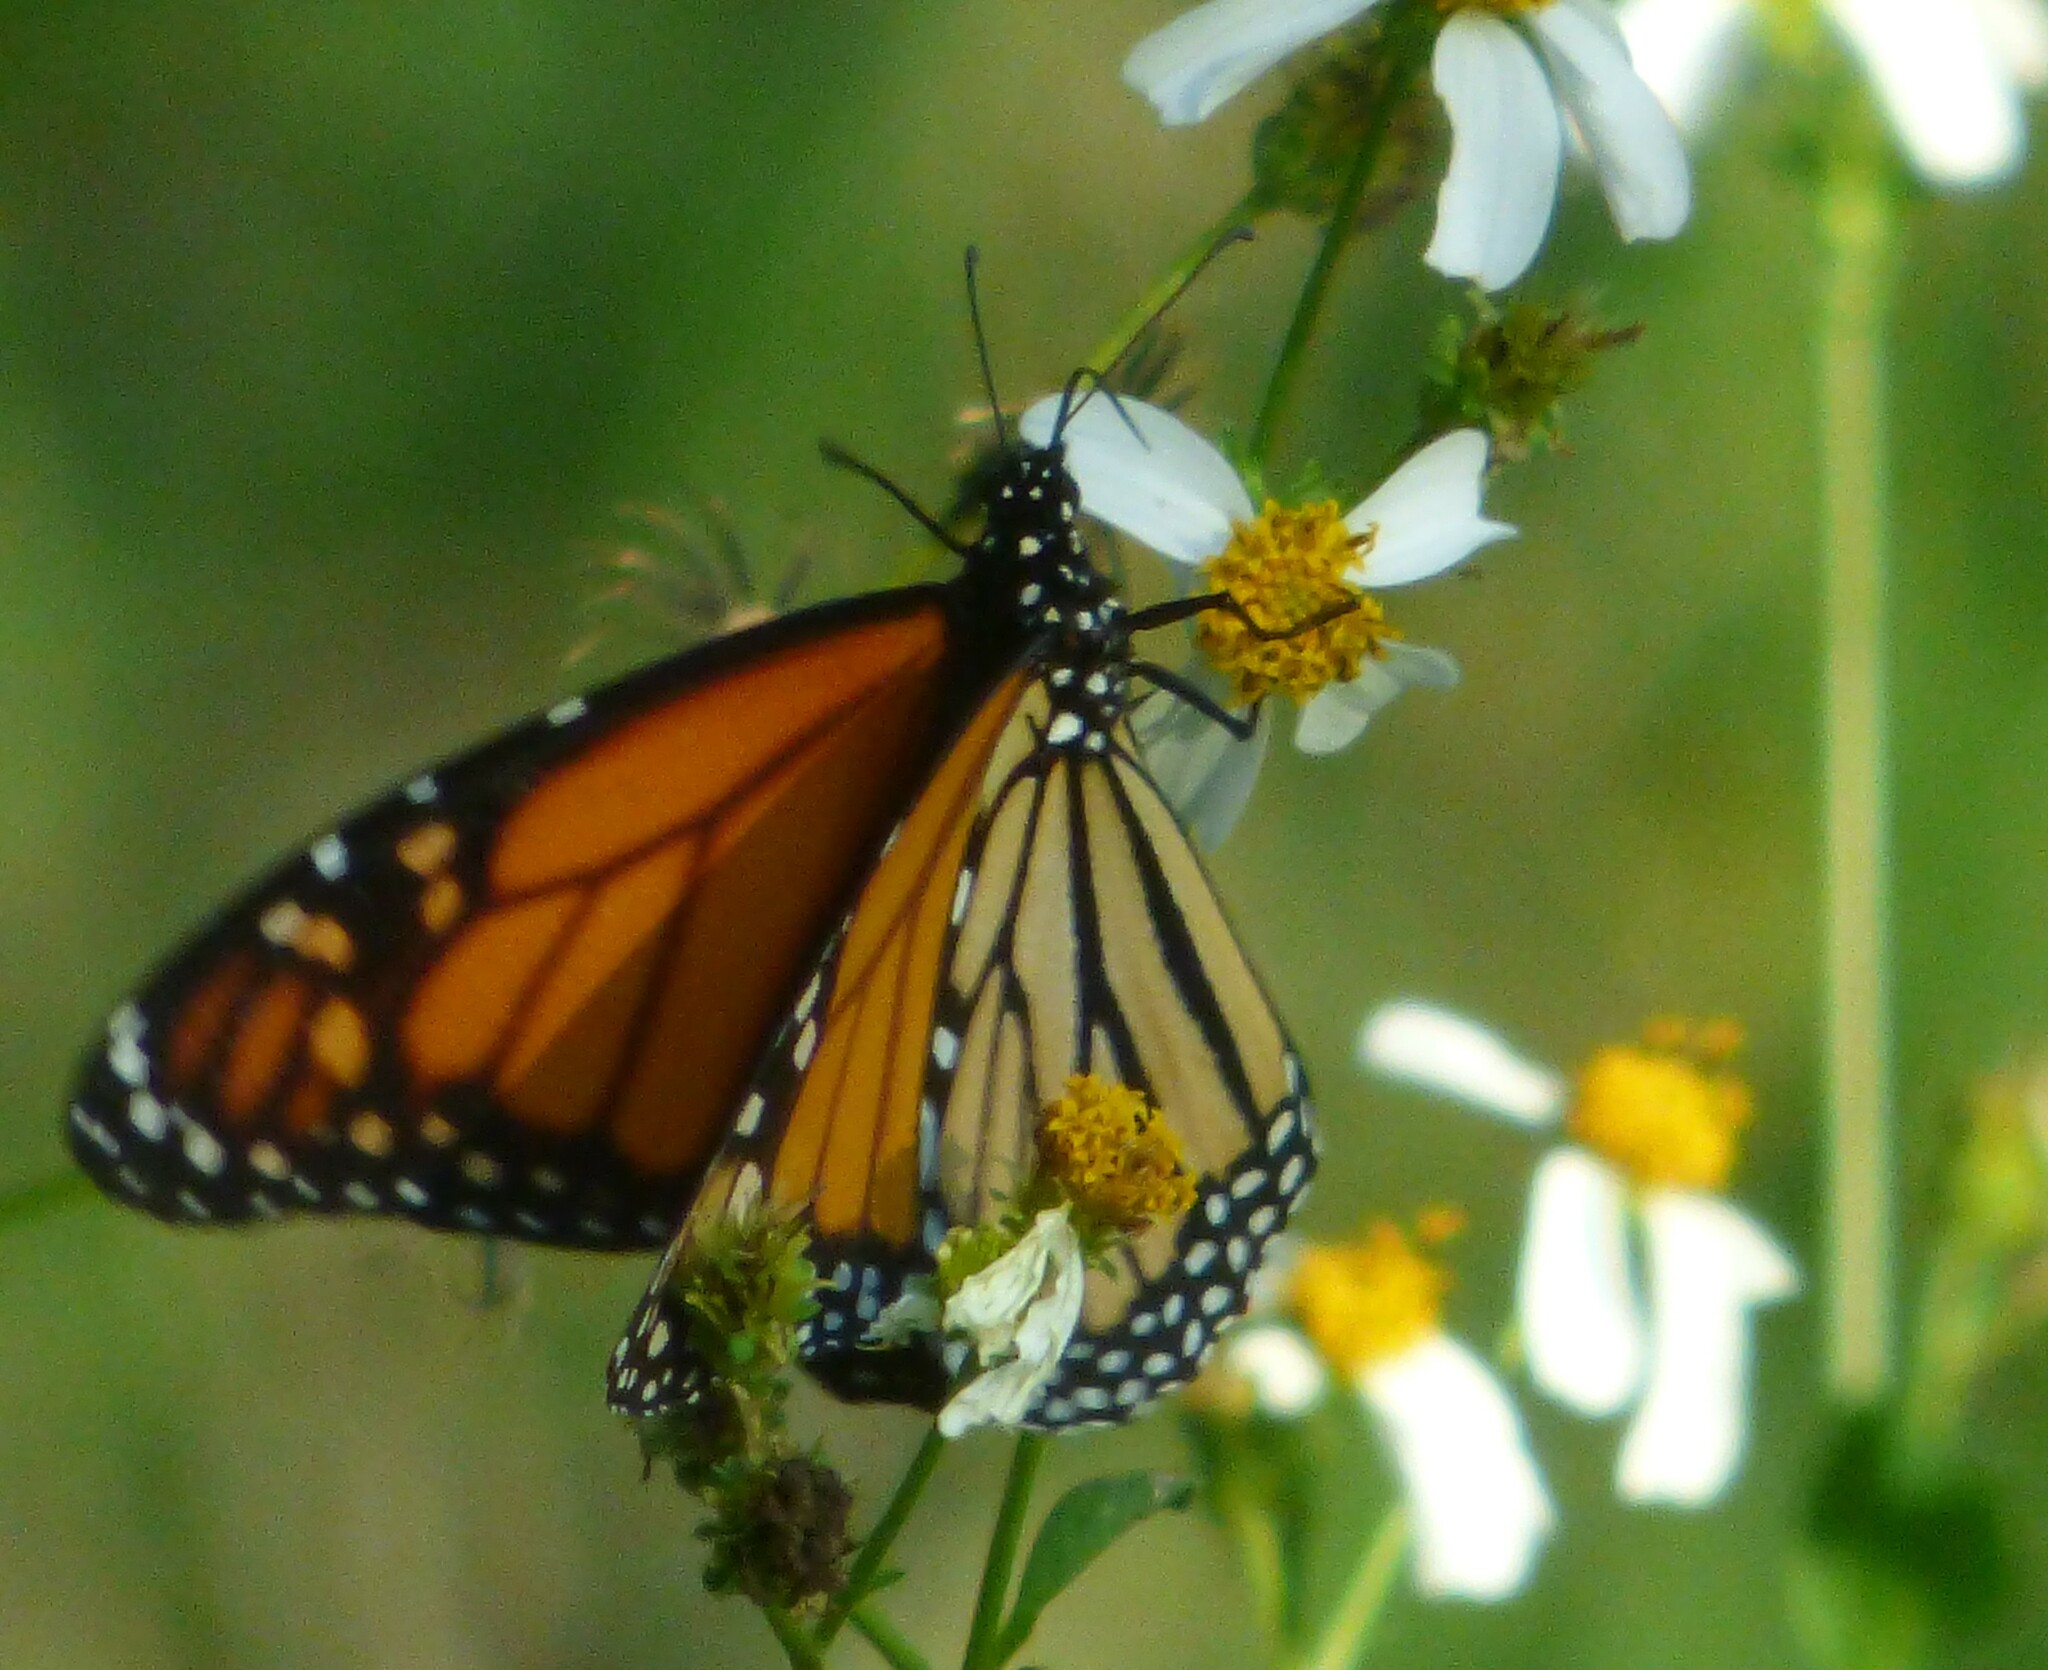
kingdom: Animalia
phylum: Arthropoda
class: Insecta
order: Lepidoptera
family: Nymphalidae
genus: Danaus
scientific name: Danaus plexippus
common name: Monarch
